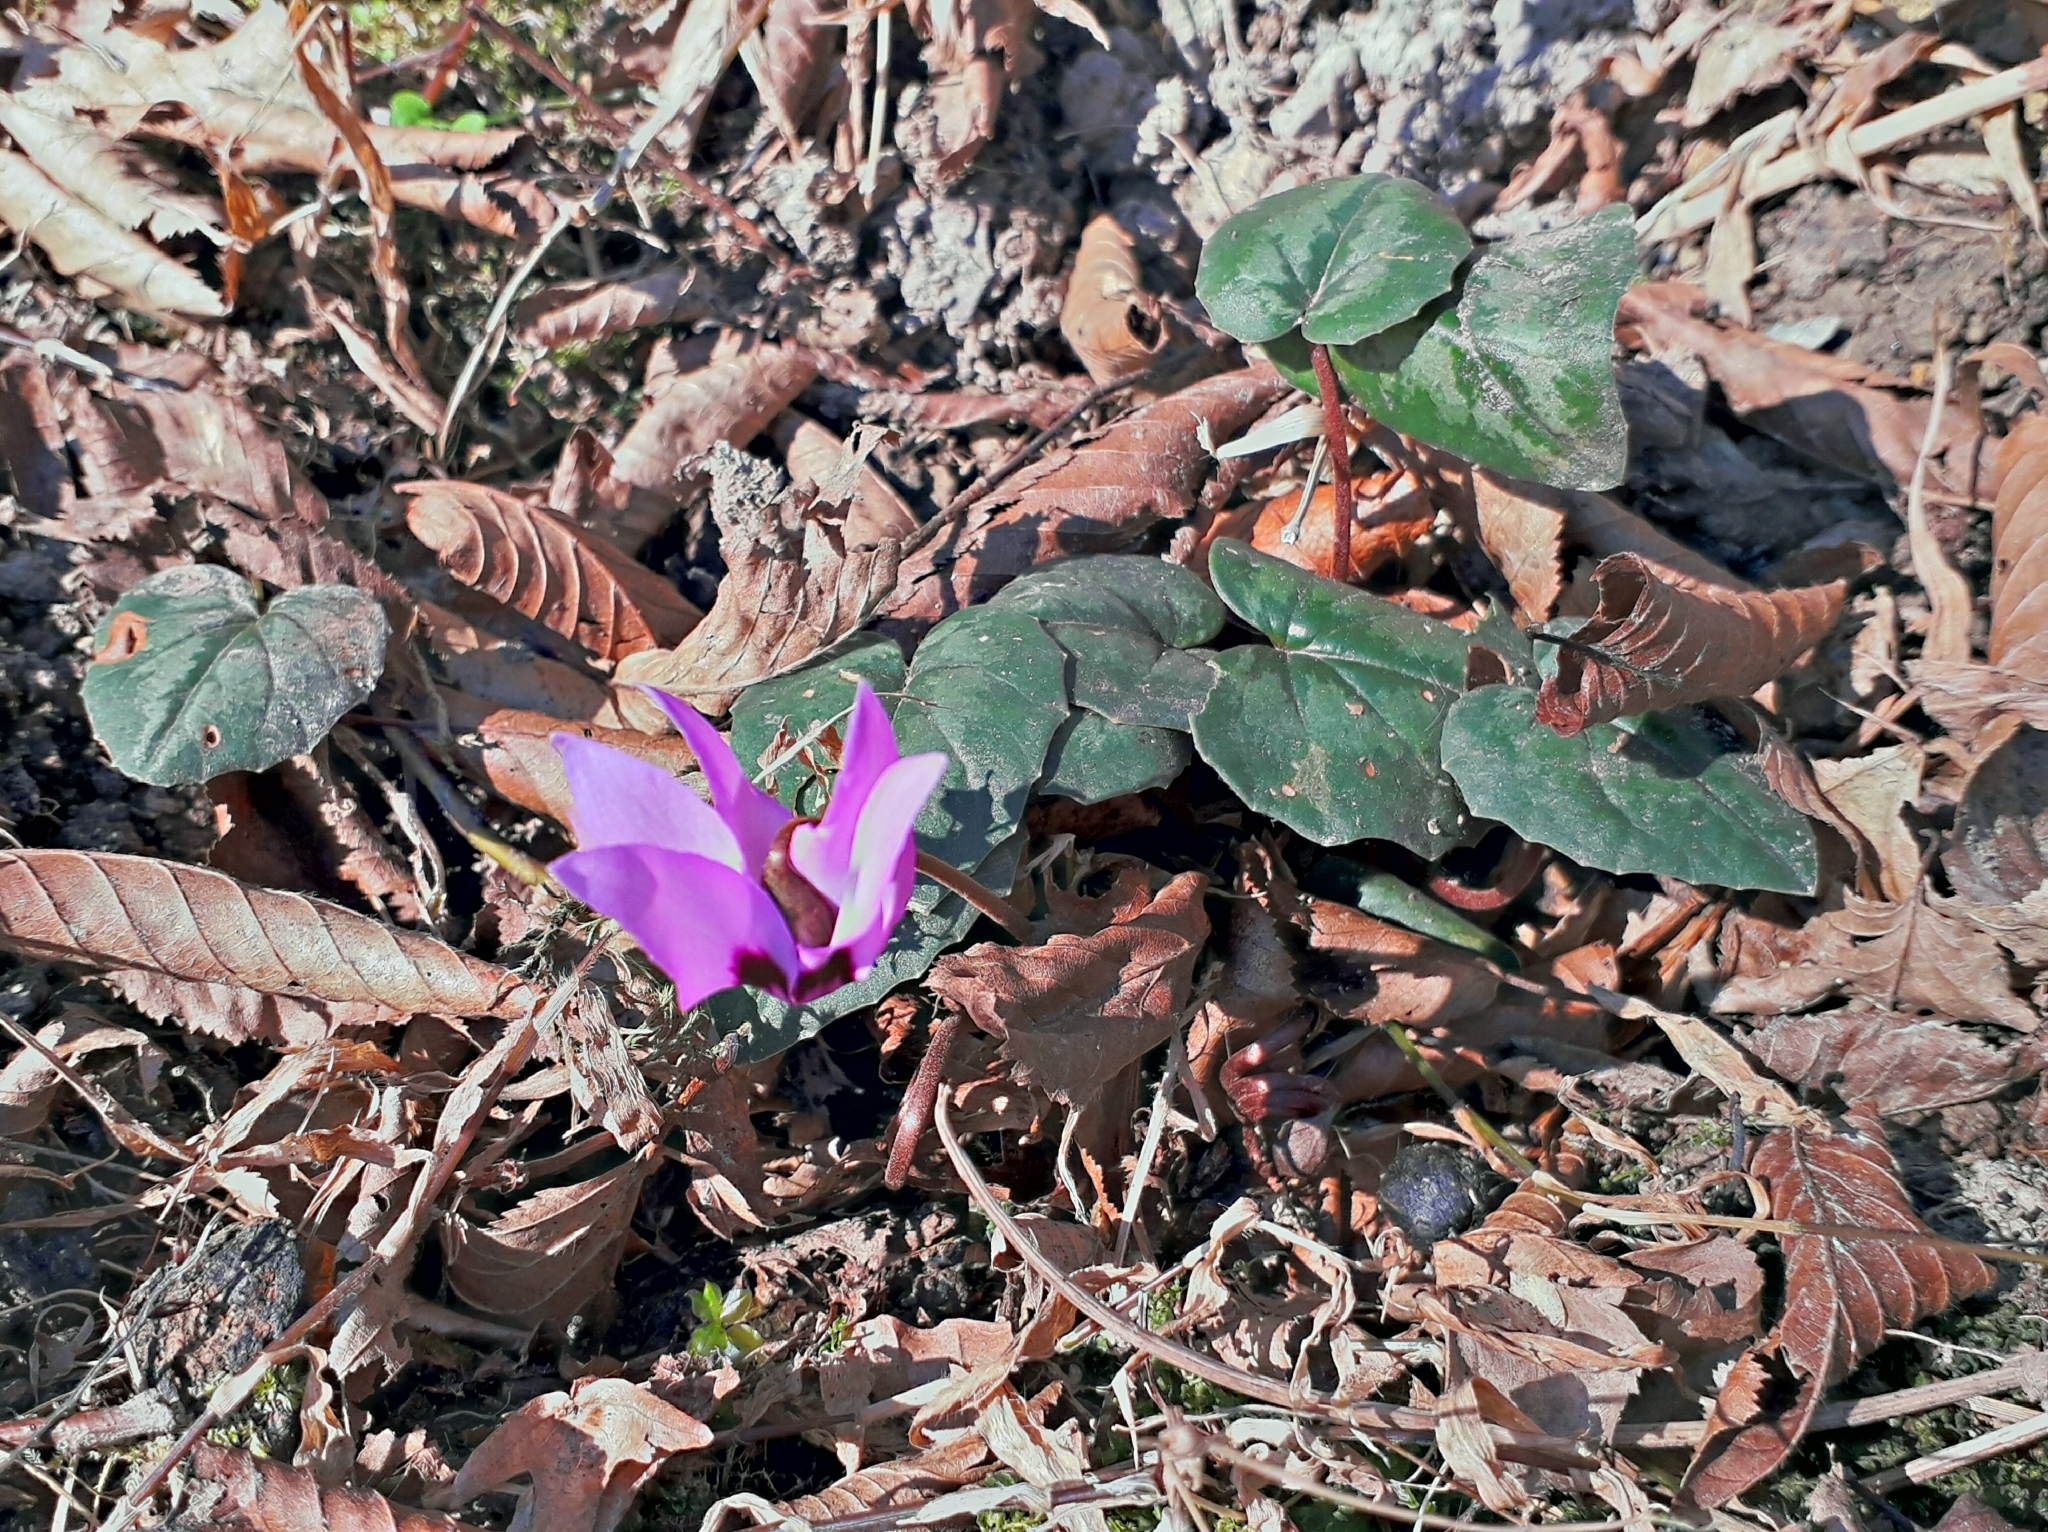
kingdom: Plantae
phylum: Tracheophyta
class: Magnoliopsida
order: Ericales
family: Primulaceae
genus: Cyclamen
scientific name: Cyclamen coum
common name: Eastern sowbread
